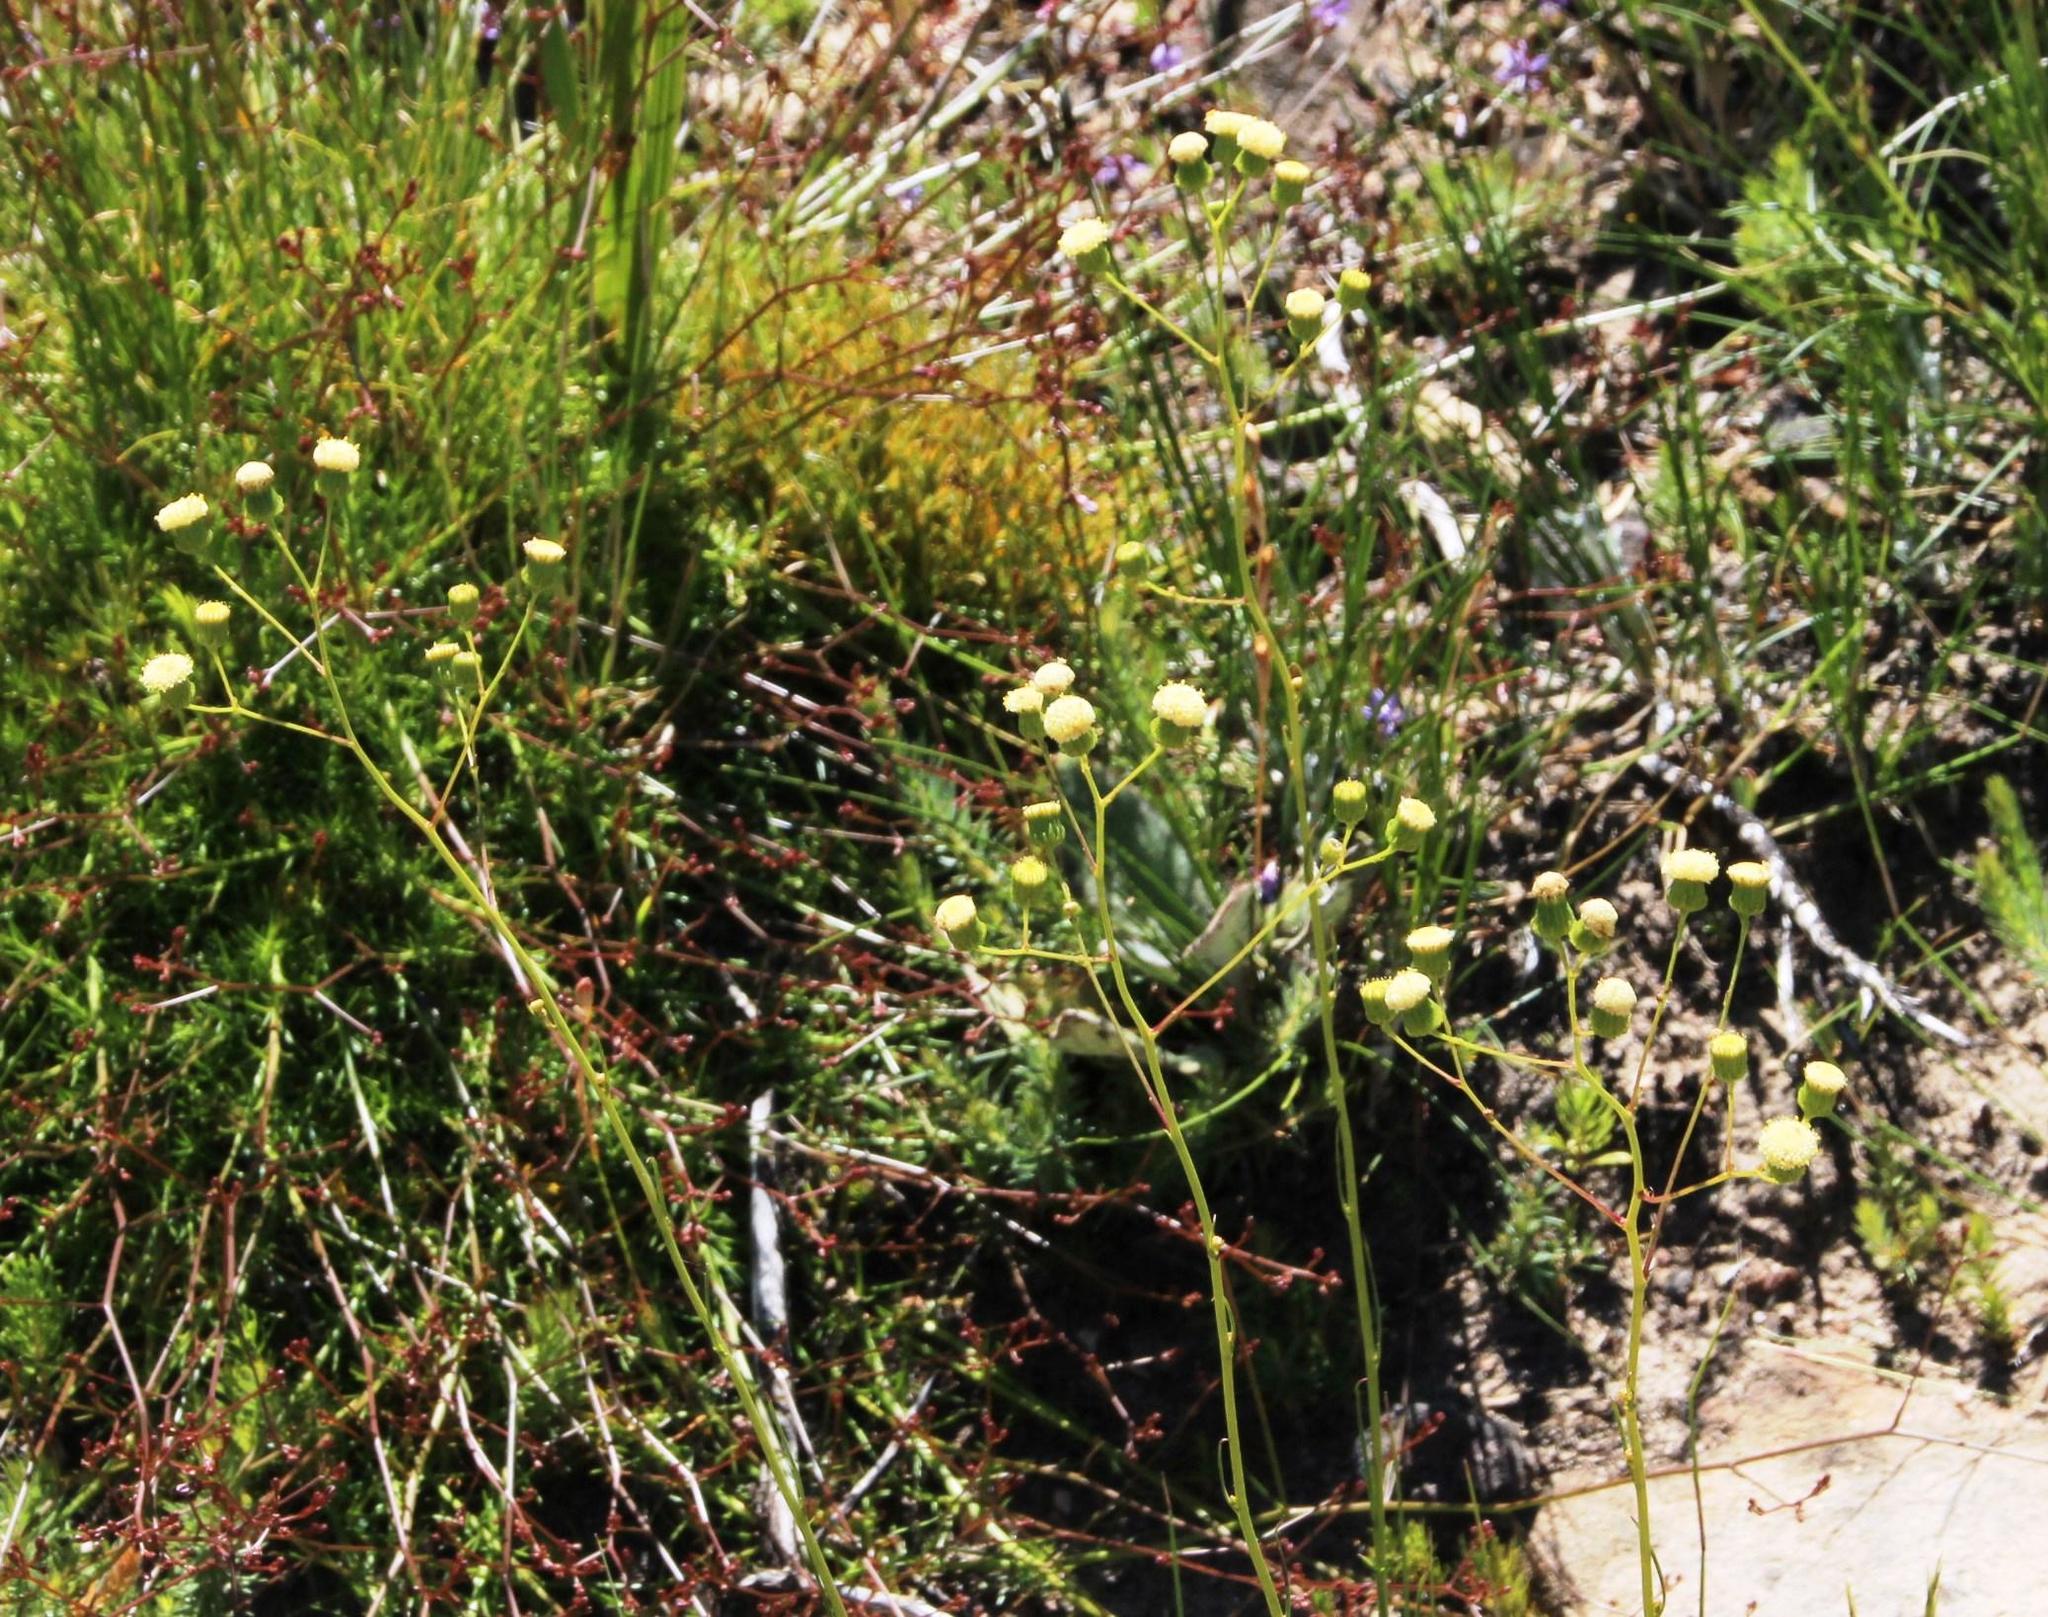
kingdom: Plantae
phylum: Tracheophyta
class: Magnoliopsida
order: Asterales
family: Asteraceae
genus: Senecio
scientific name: Senecio paniculatus
